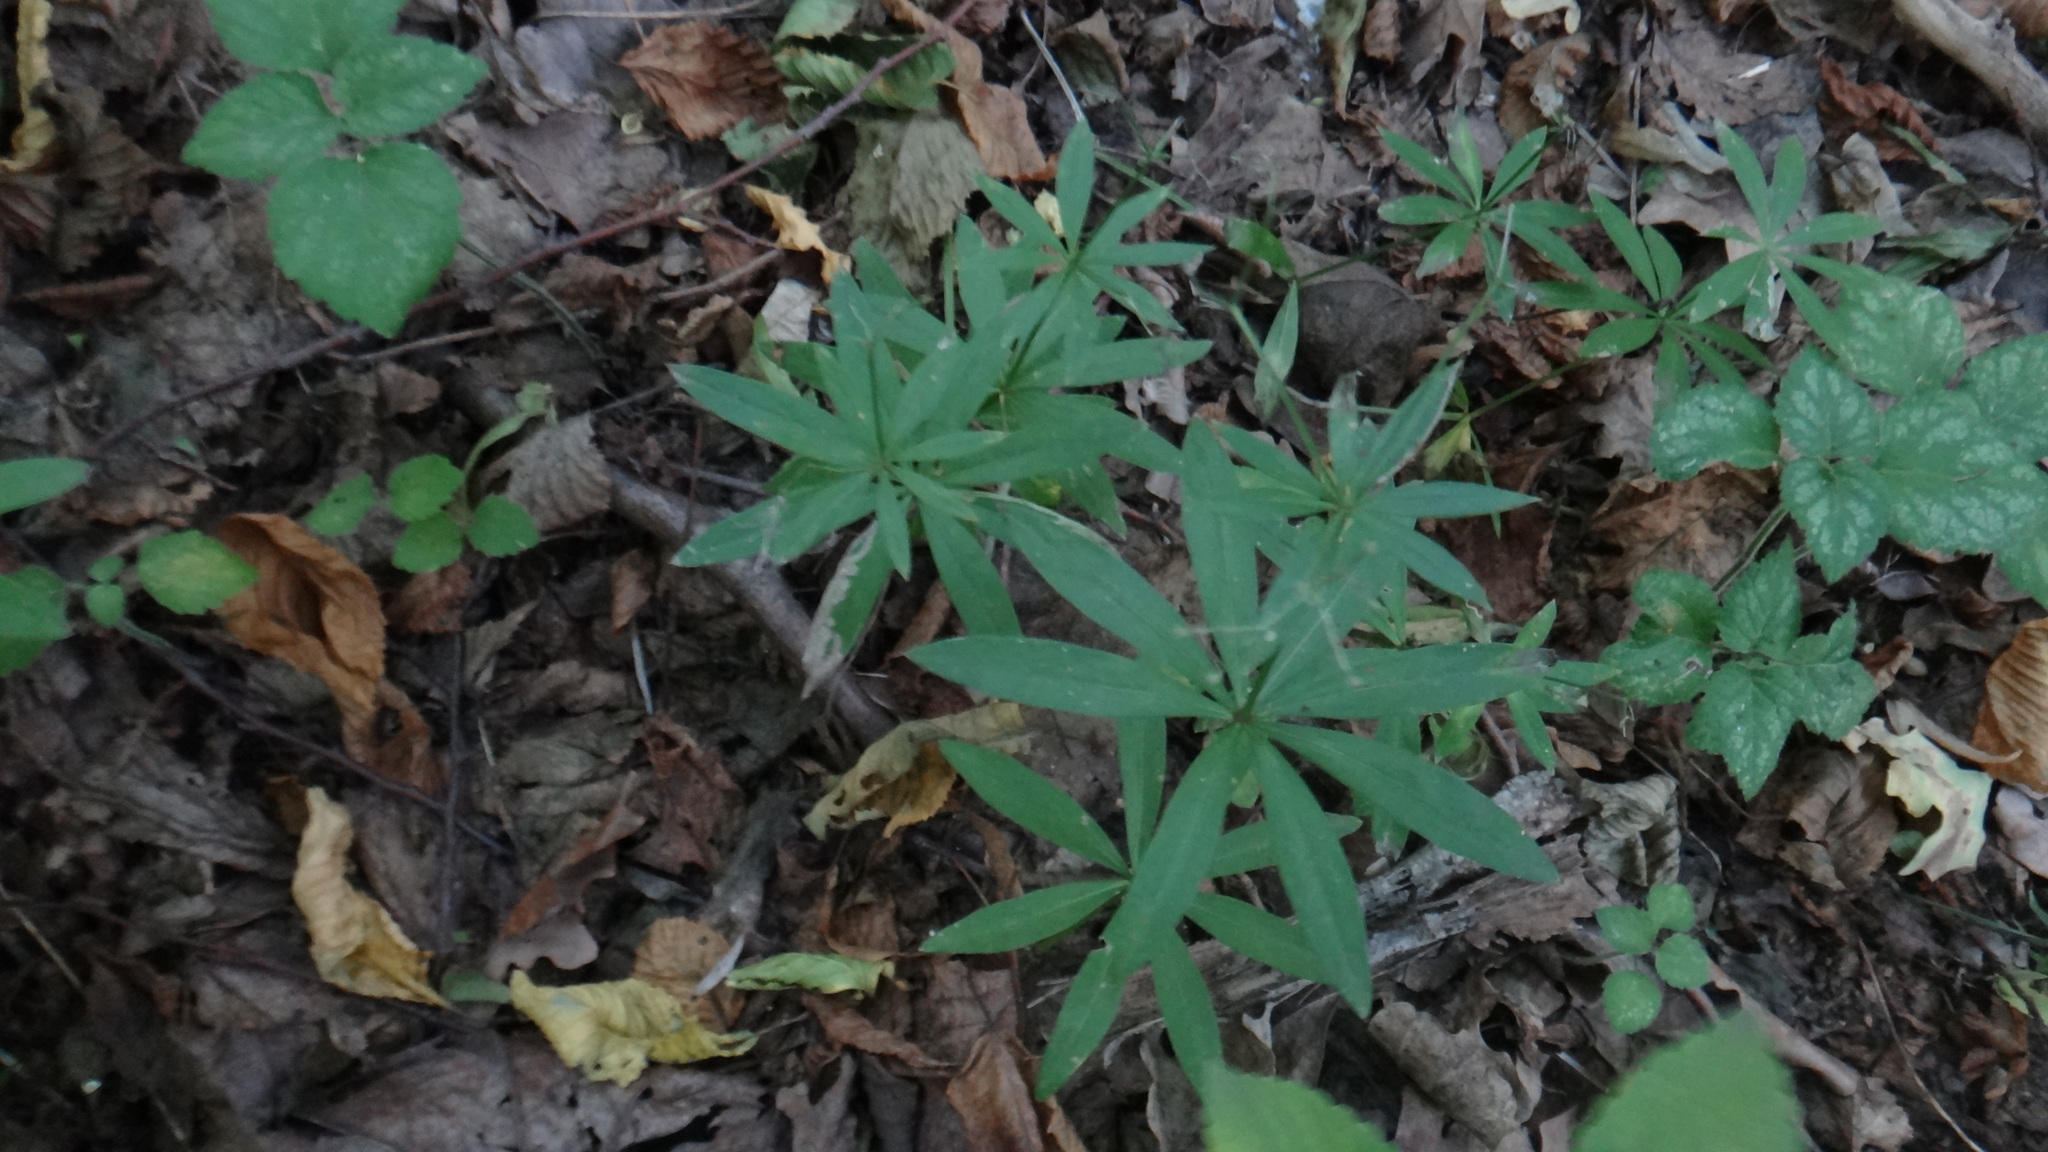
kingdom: Plantae
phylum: Tracheophyta
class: Magnoliopsida
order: Gentianales
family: Rubiaceae
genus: Galium
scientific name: Galium odoratum
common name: Sweet woodruff
